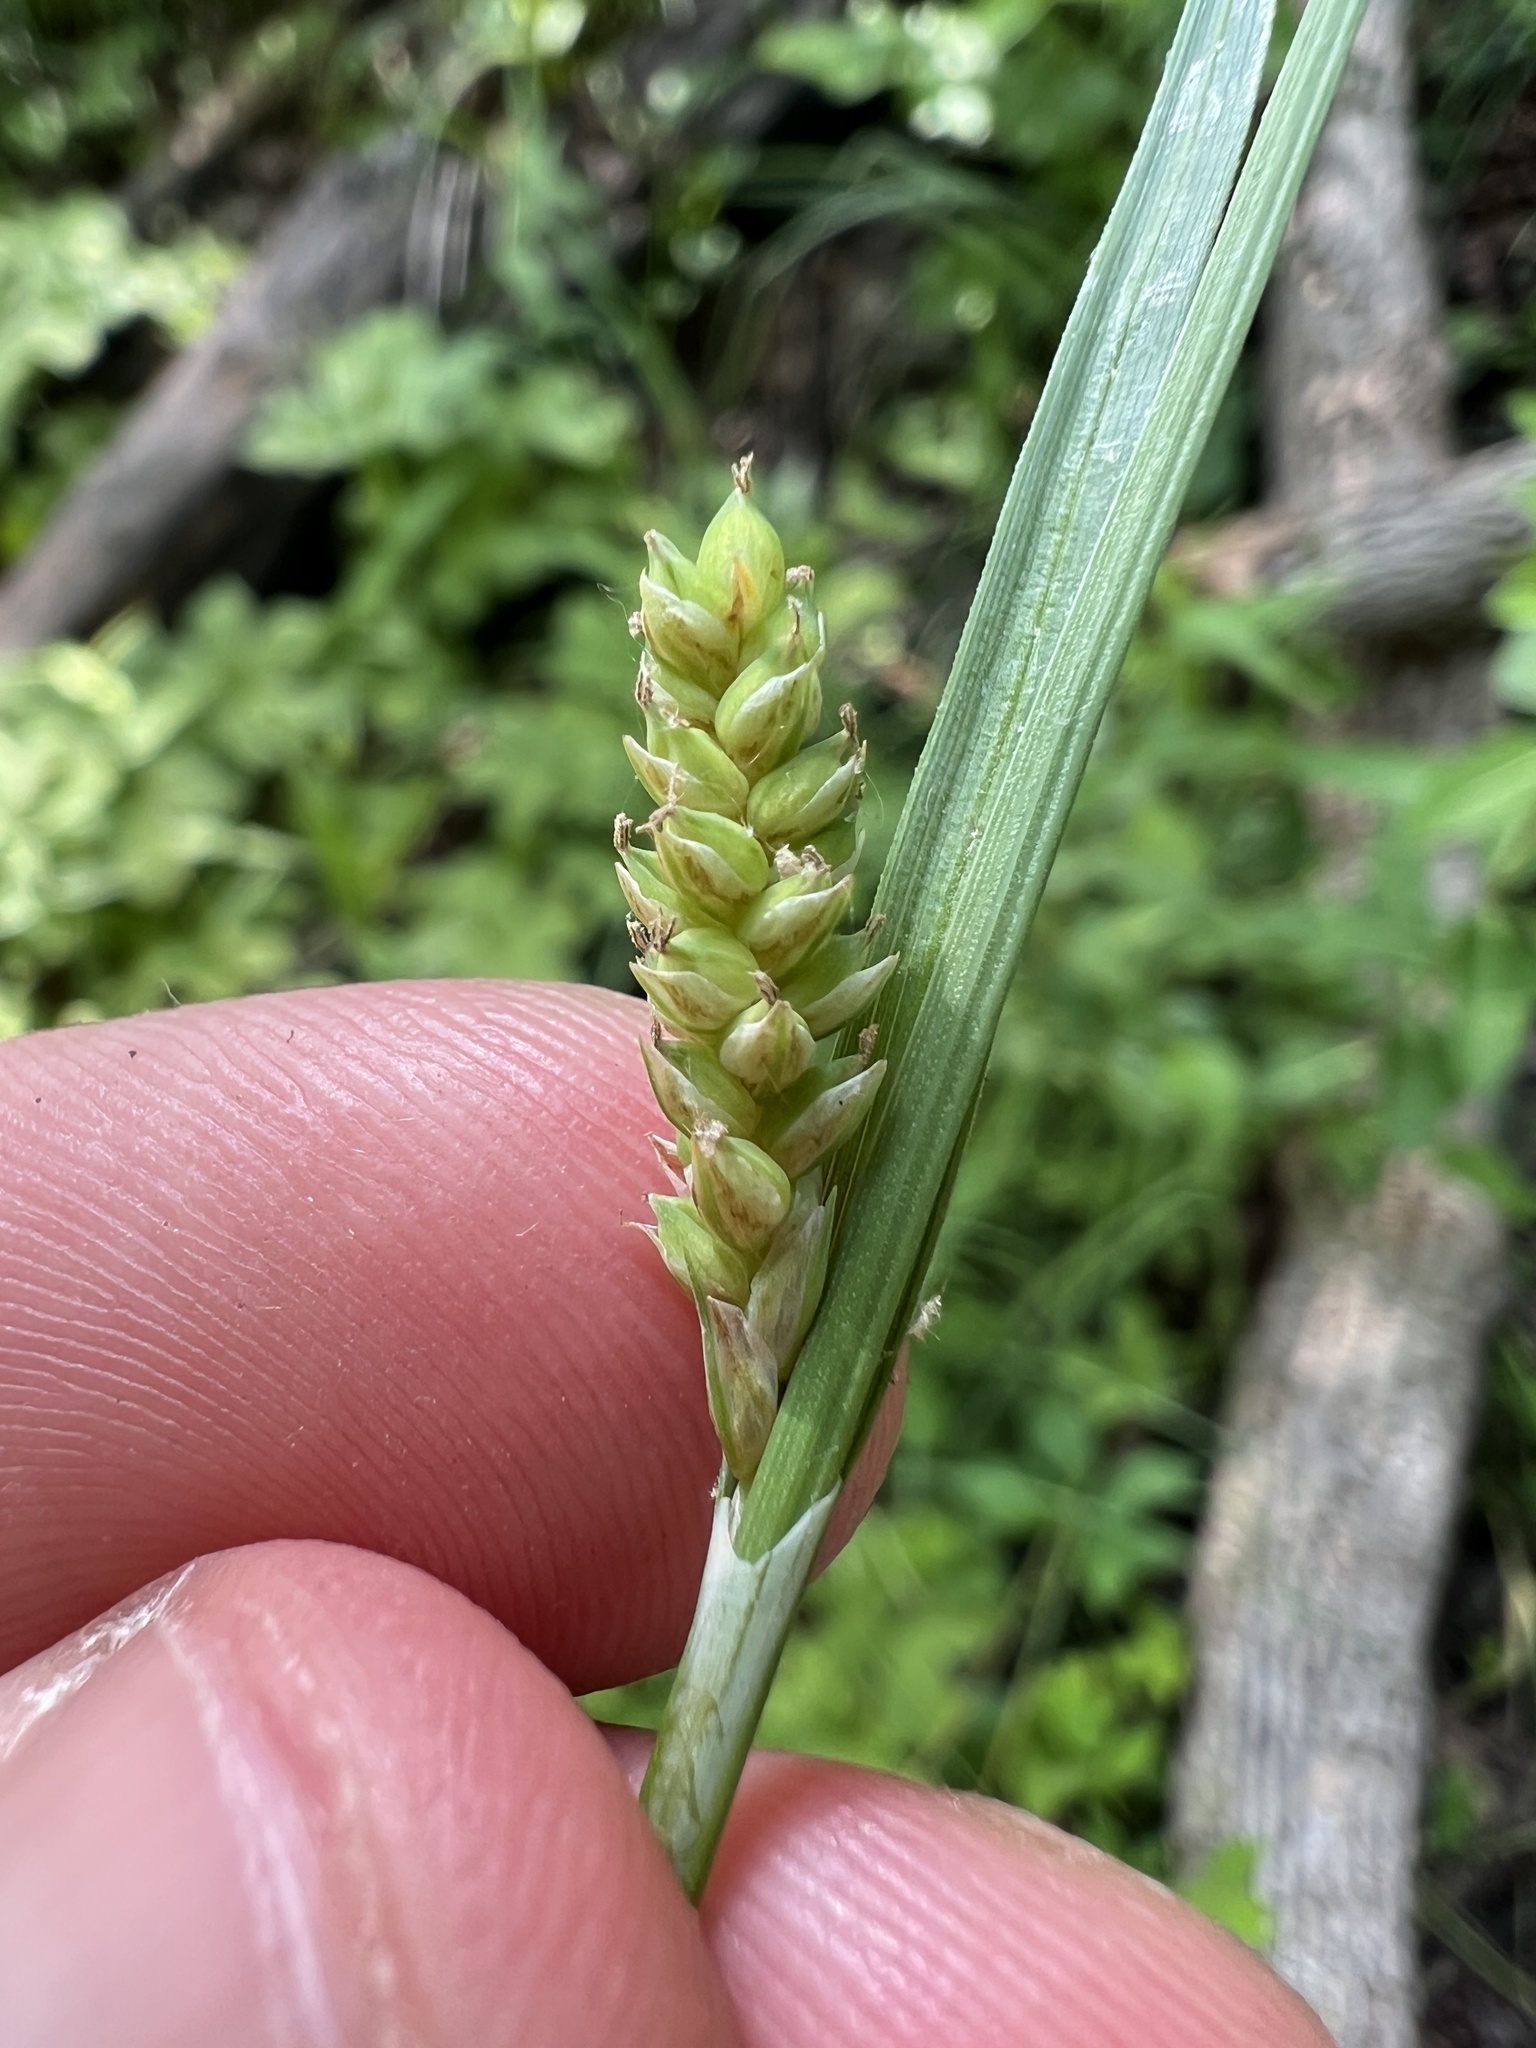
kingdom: Plantae
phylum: Tracheophyta
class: Liliopsida
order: Poales
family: Cyperaceae
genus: Carex
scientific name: Carex meadii
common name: Mead's sedge
